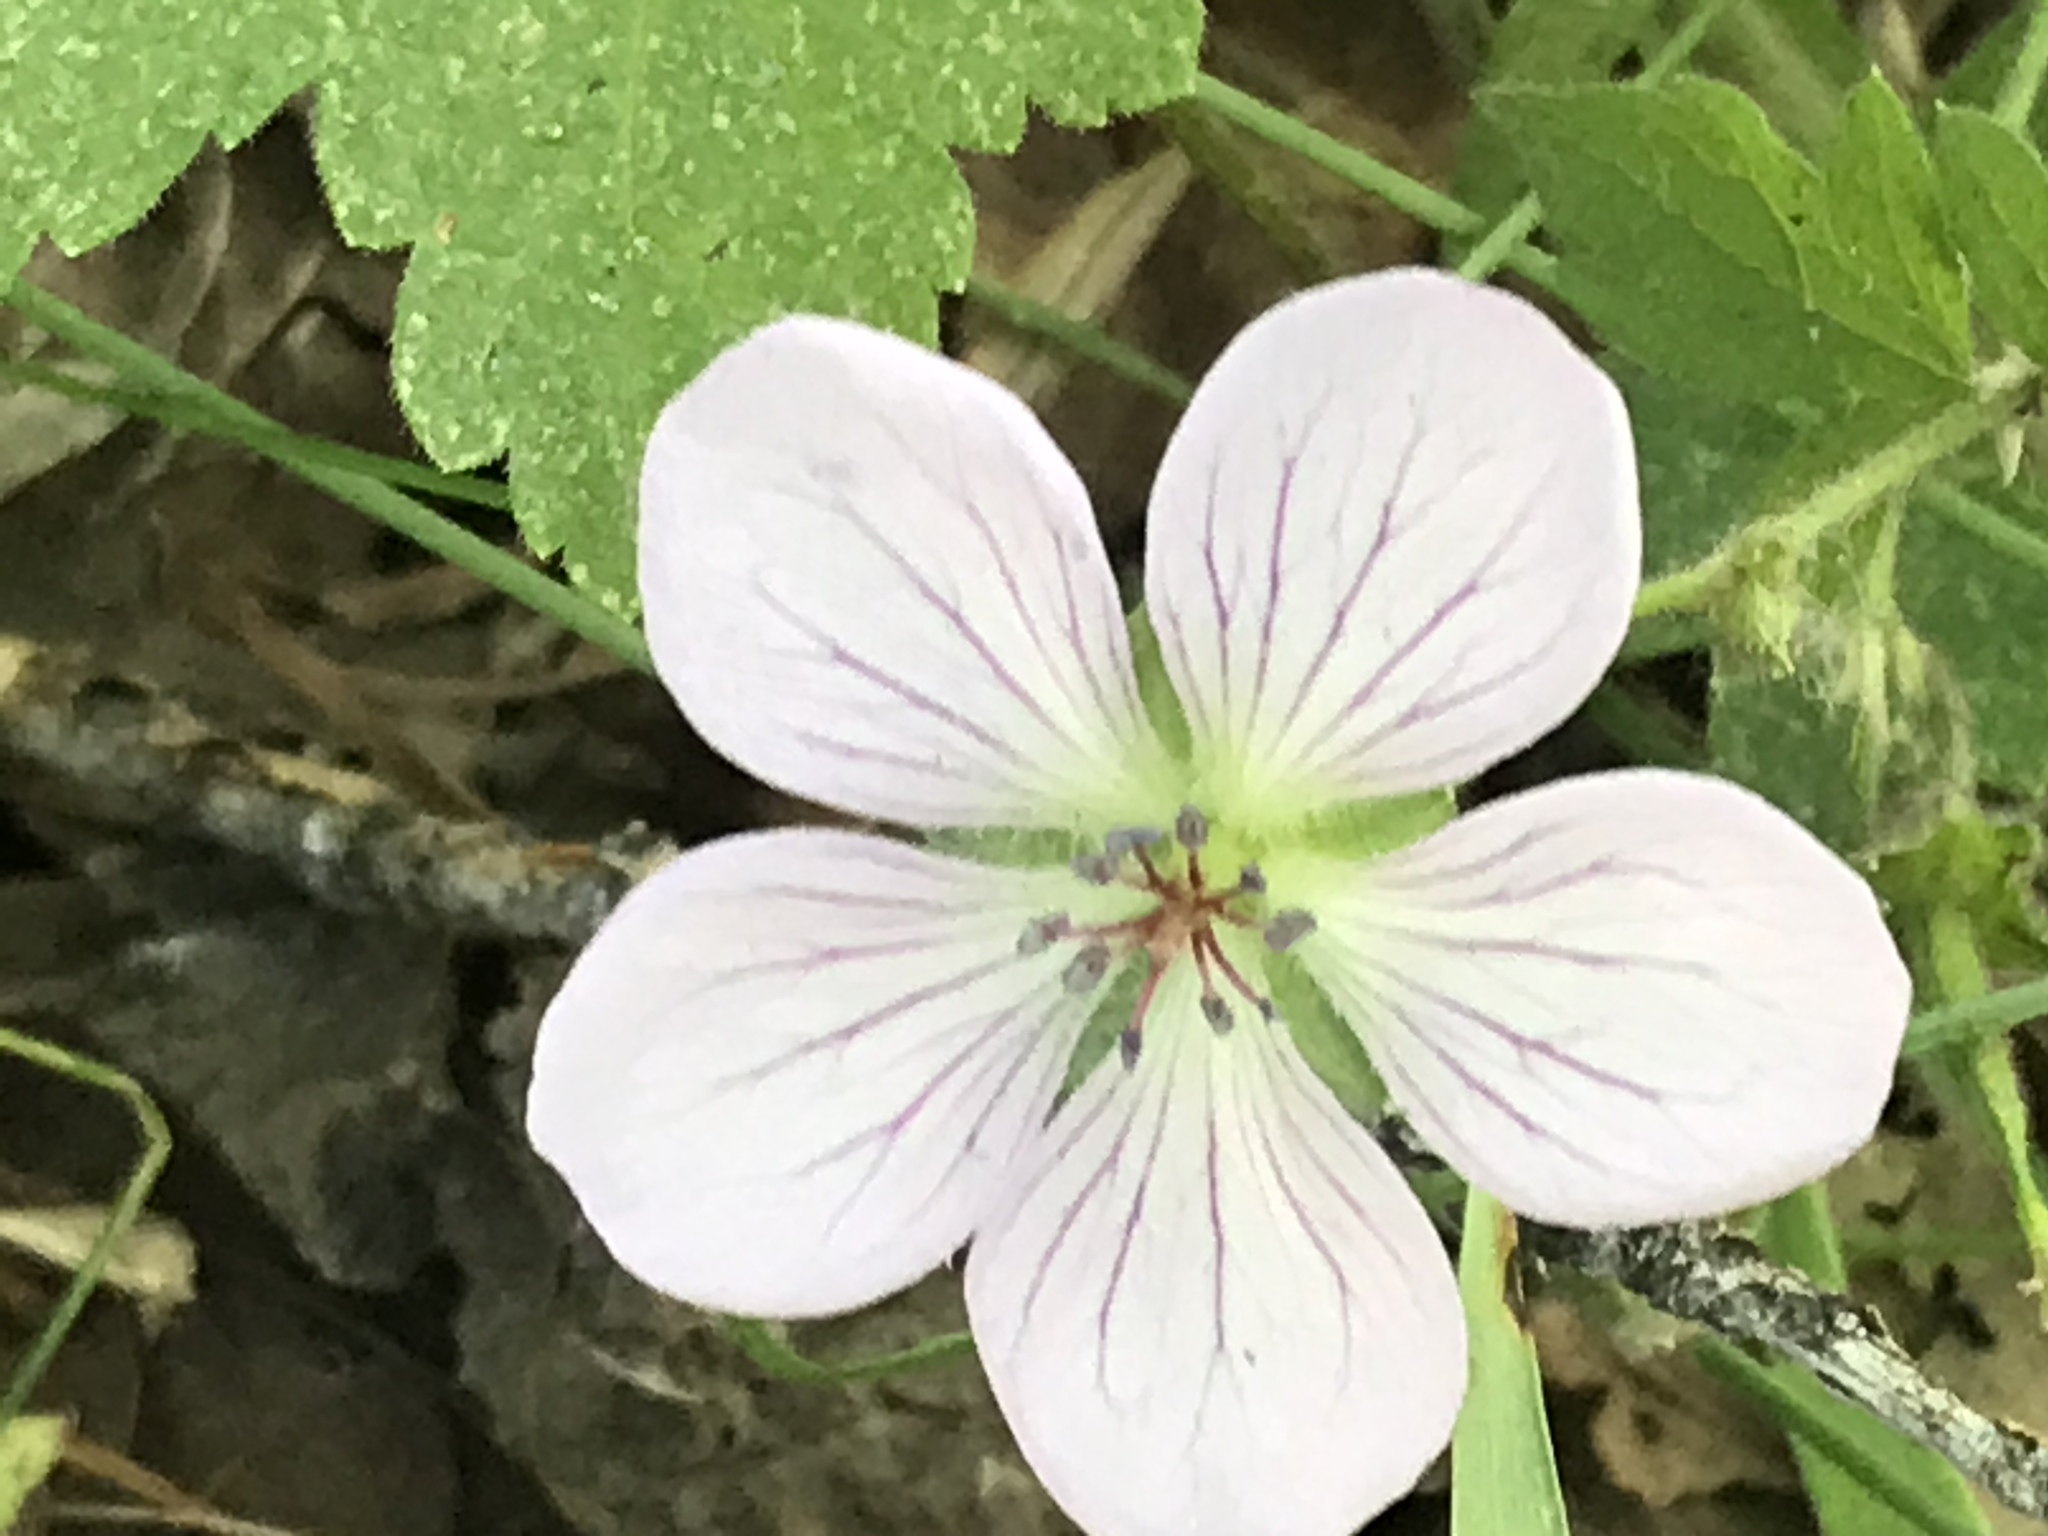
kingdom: Plantae
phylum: Tracheophyta
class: Magnoliopsida
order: Geraniales
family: Geraniaceae
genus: Geranium
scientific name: Geranium richardsonii
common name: Richardson's crane's-bill
